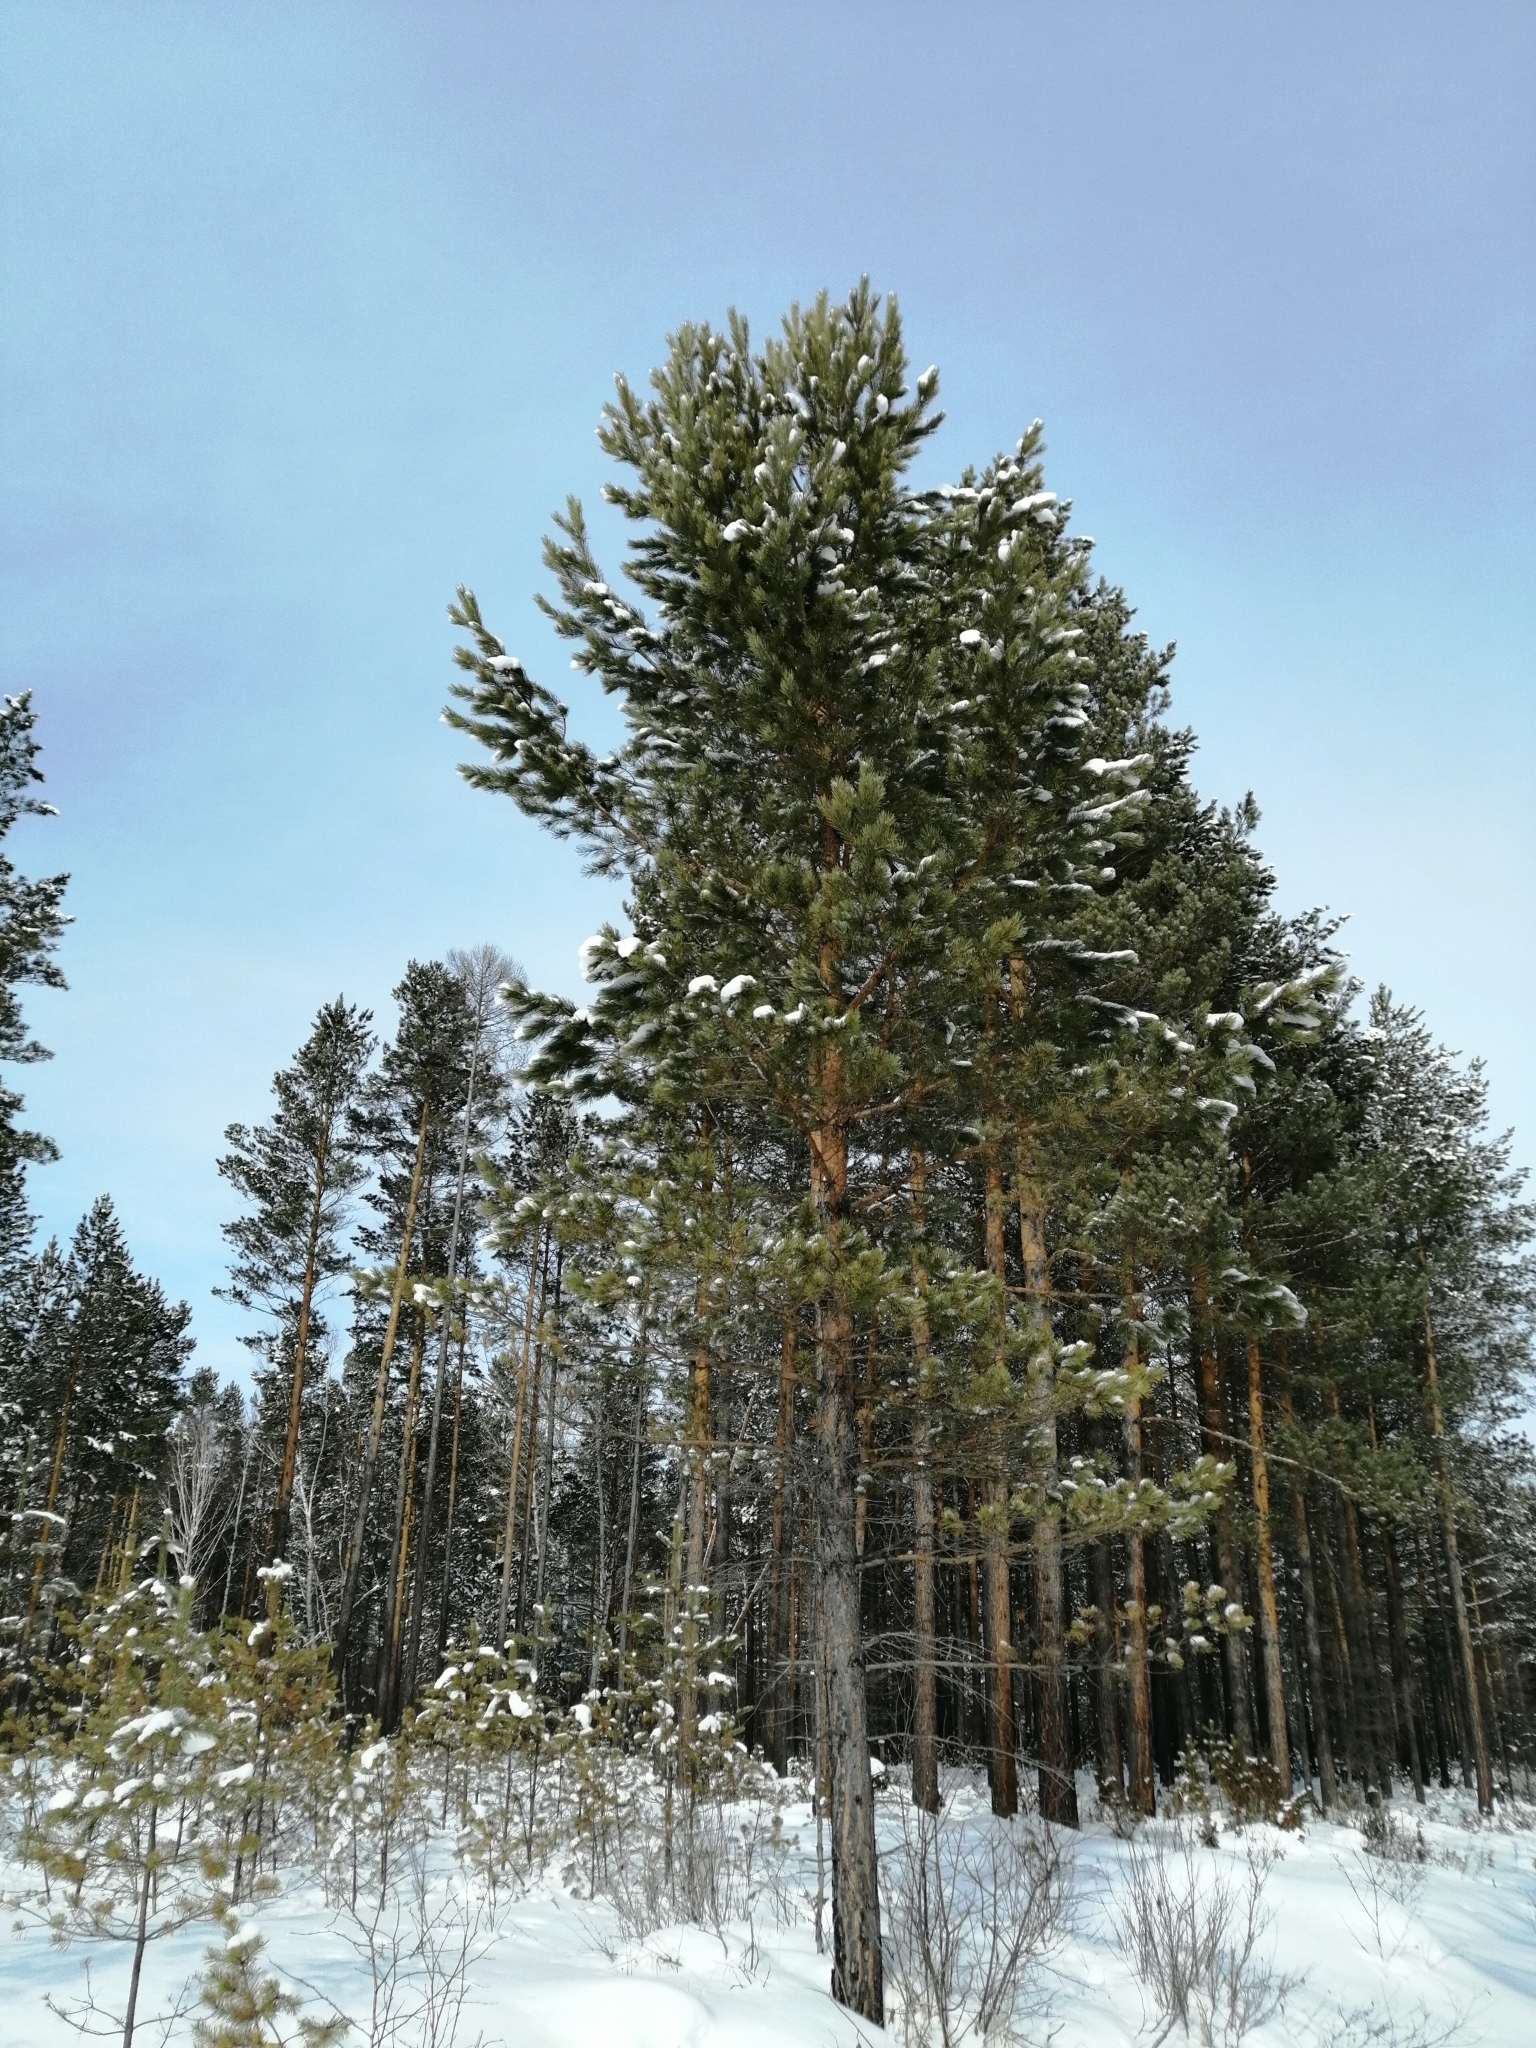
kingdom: Plantae
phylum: Tracheophyta
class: Pinopsida
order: Pinales
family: Pinaceae
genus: Pinus
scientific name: Pinus sylvestris
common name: Scots pine
